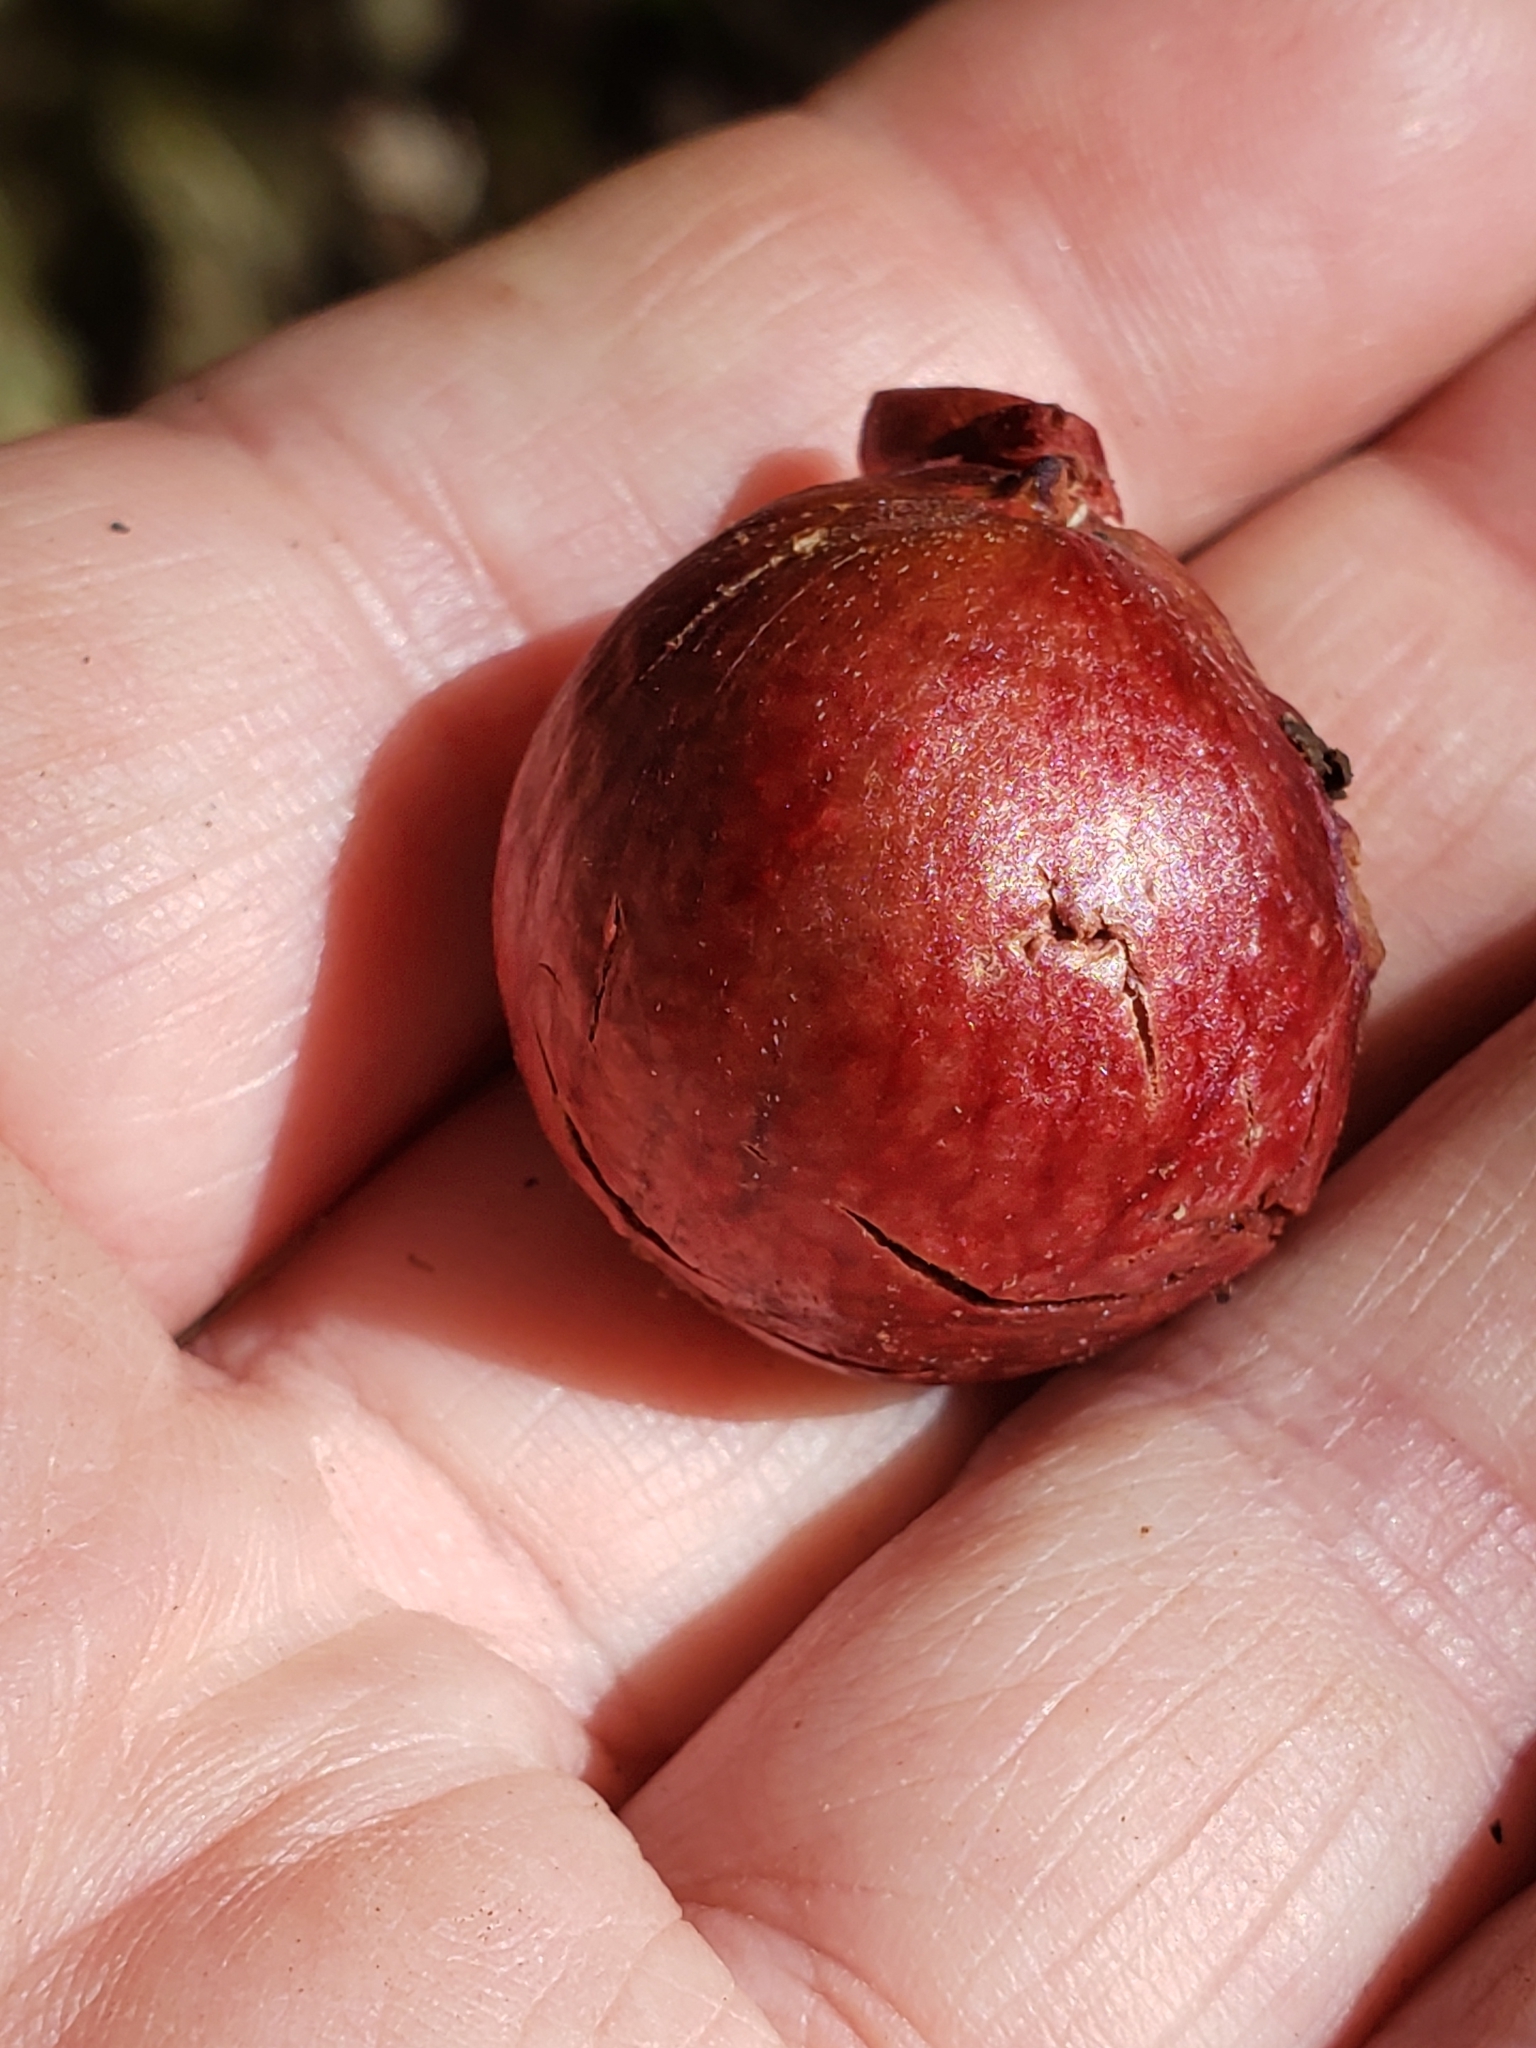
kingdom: Animalia
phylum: Arthropoda
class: Insecta
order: Hymenoptera
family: Cynipidae
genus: Amphibolips
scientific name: Amphibolips
